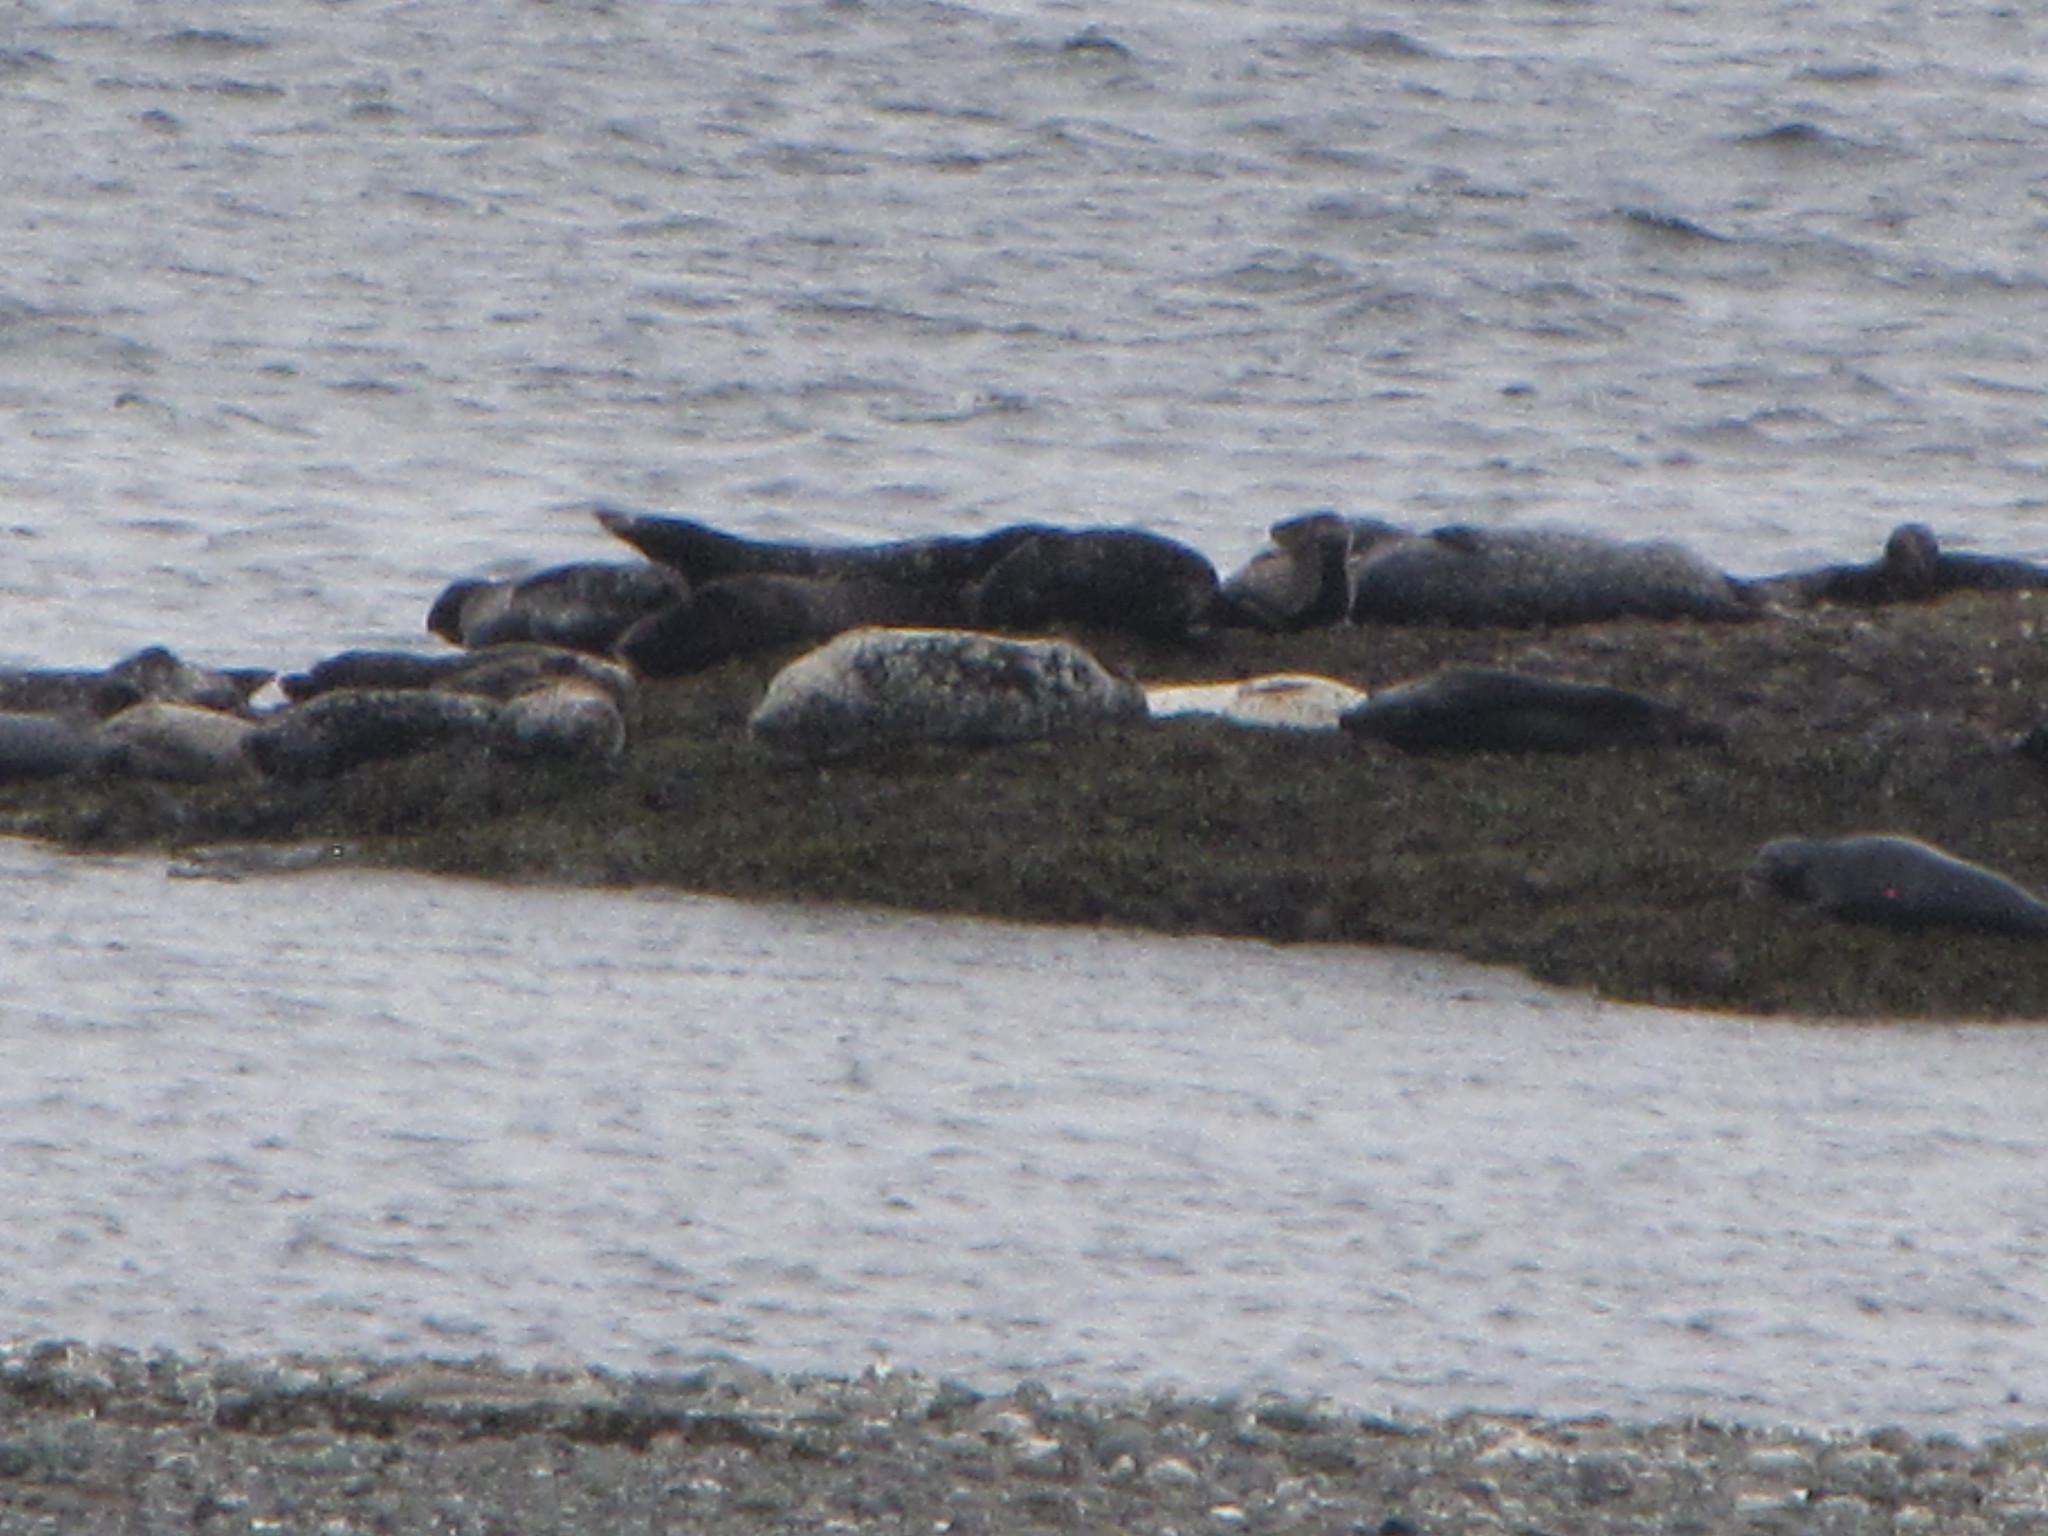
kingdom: Animalia
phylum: Chordata
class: Mammalia
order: Carnivora
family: Phocidae
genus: Phoca
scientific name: Phoca vitulina
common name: Harbor seal
